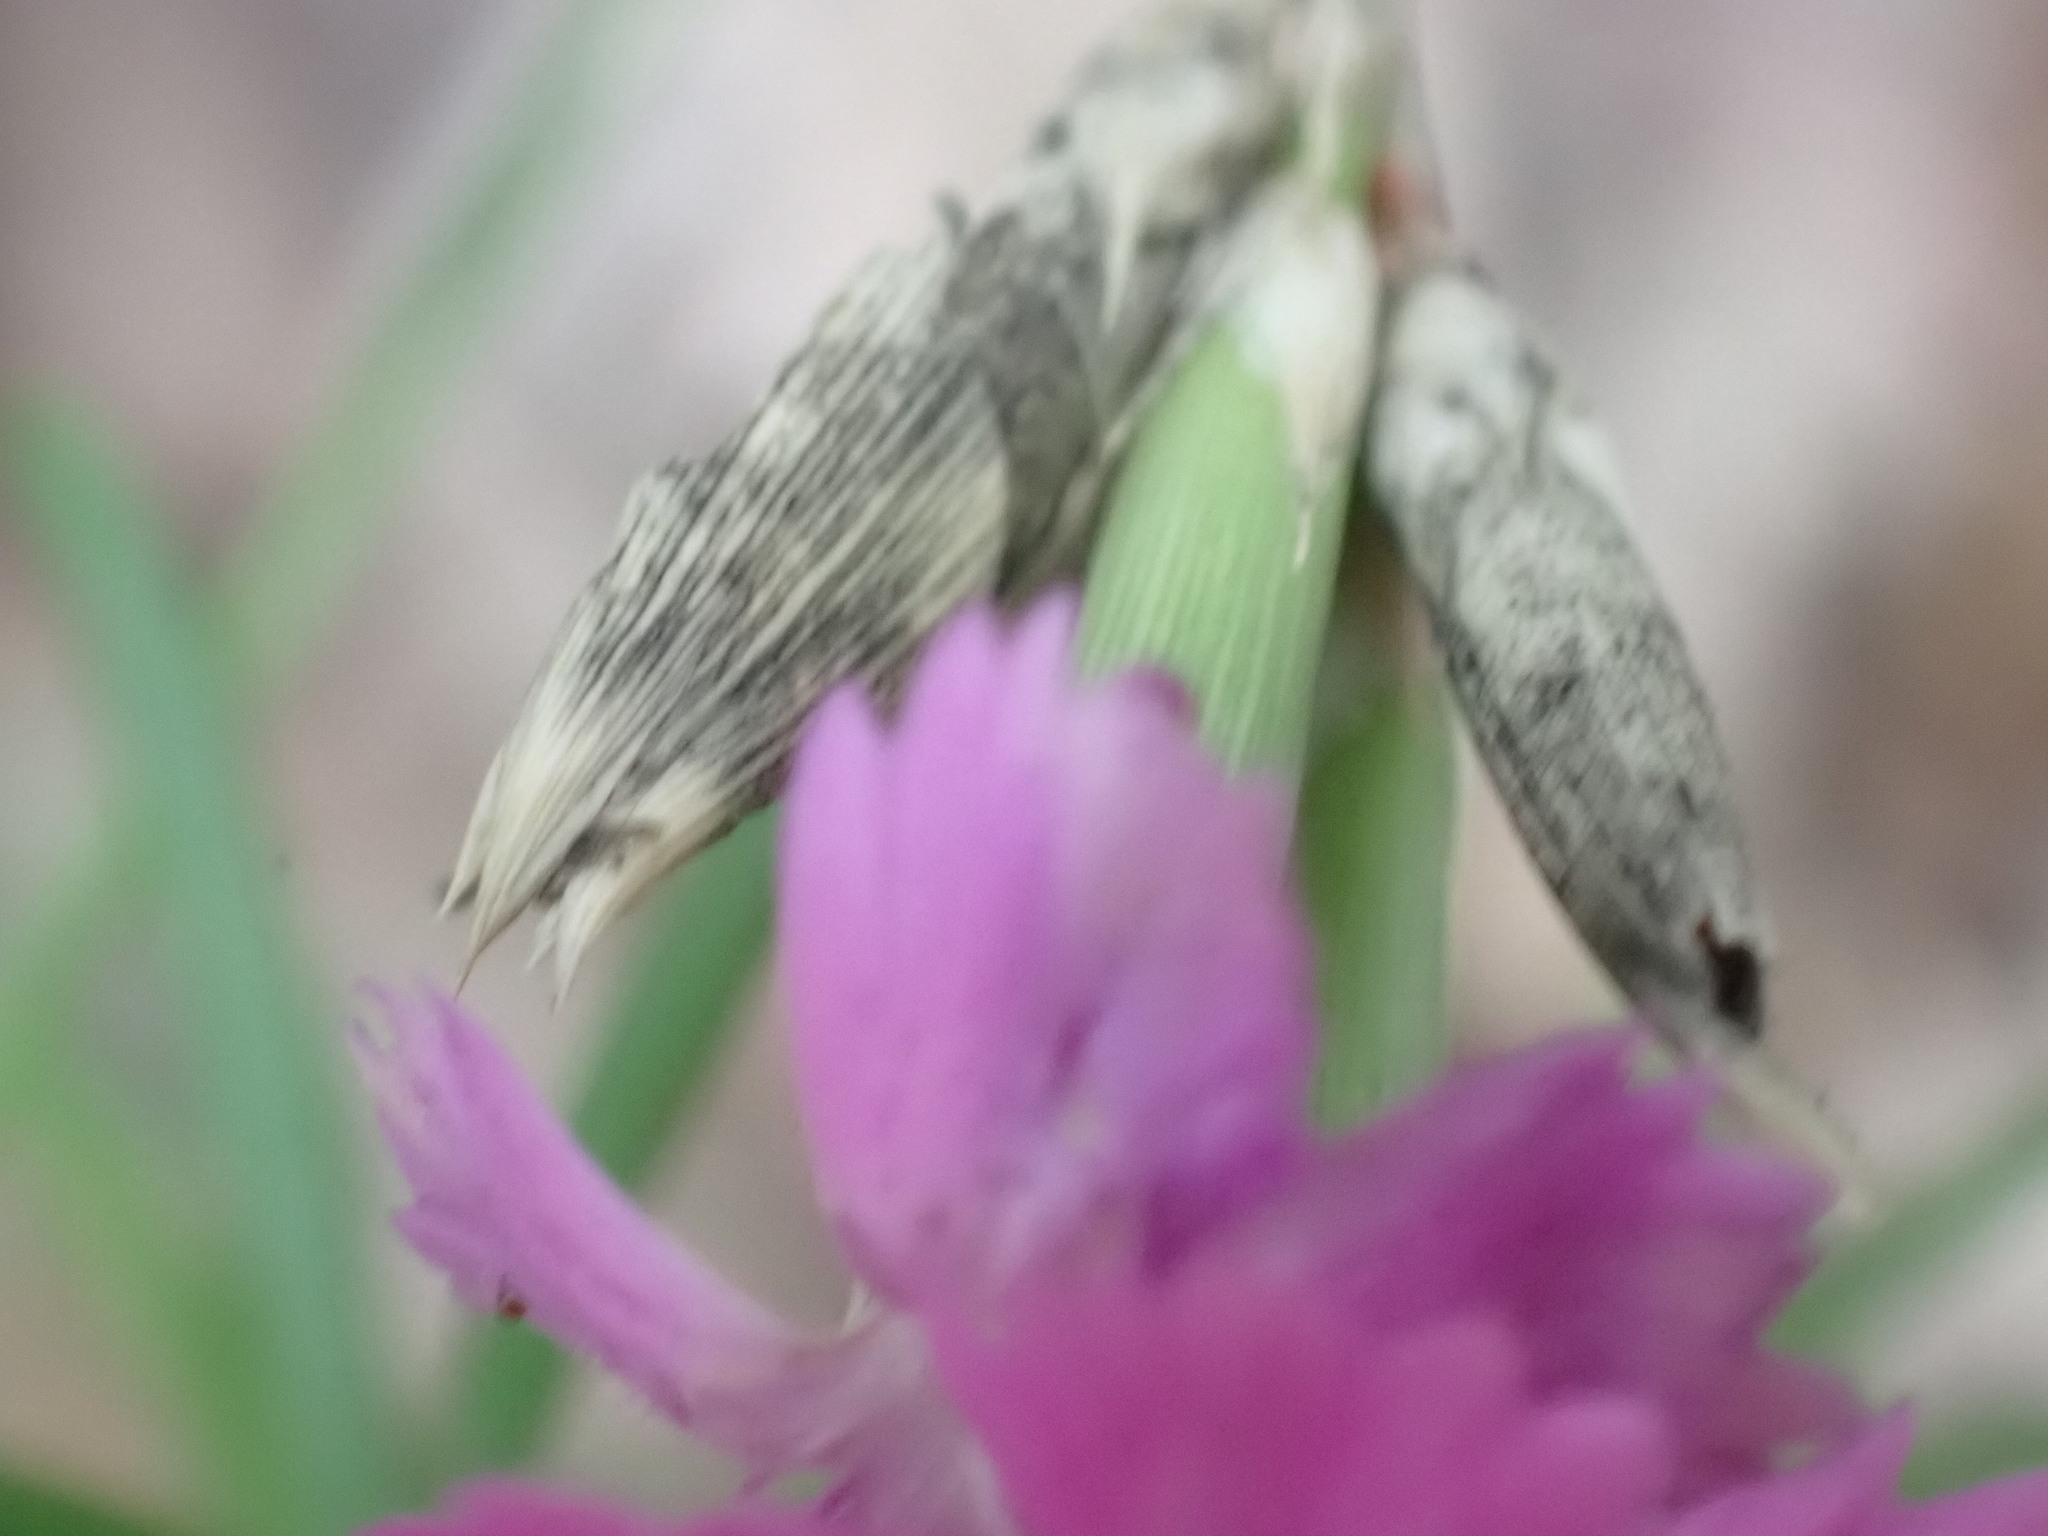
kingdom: Plantae
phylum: Tracheophyta
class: Magnoliopsida
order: Caryophyllales
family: Caryophyllaceae
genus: Dianthus
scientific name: Dianthus scaber
